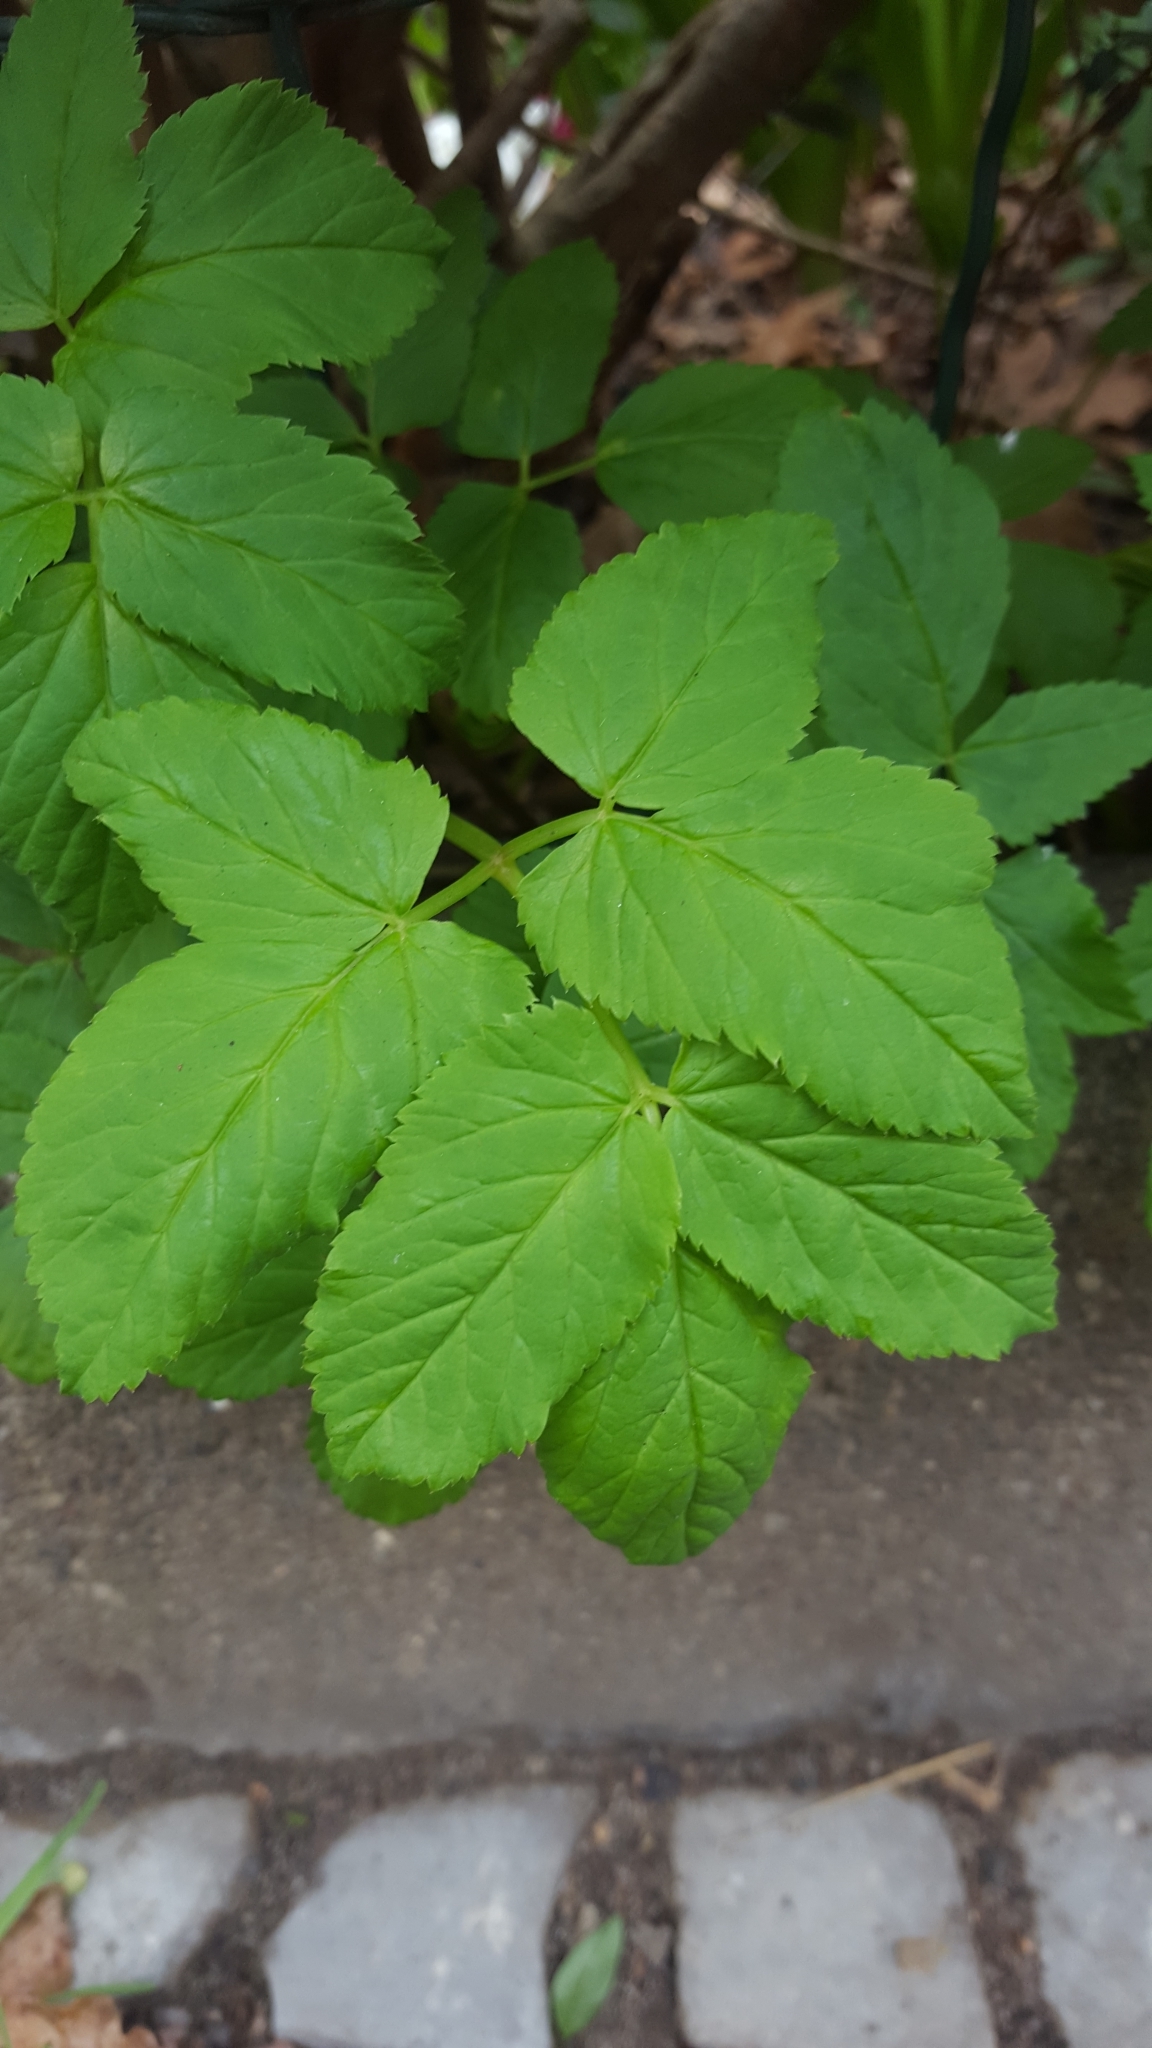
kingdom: Plantae
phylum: Tracheophyta
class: Magnoliopsida
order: Apiales
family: Apiaceae
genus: Aegopodium
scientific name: Aegopodium podagraria
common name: Ground-elder
